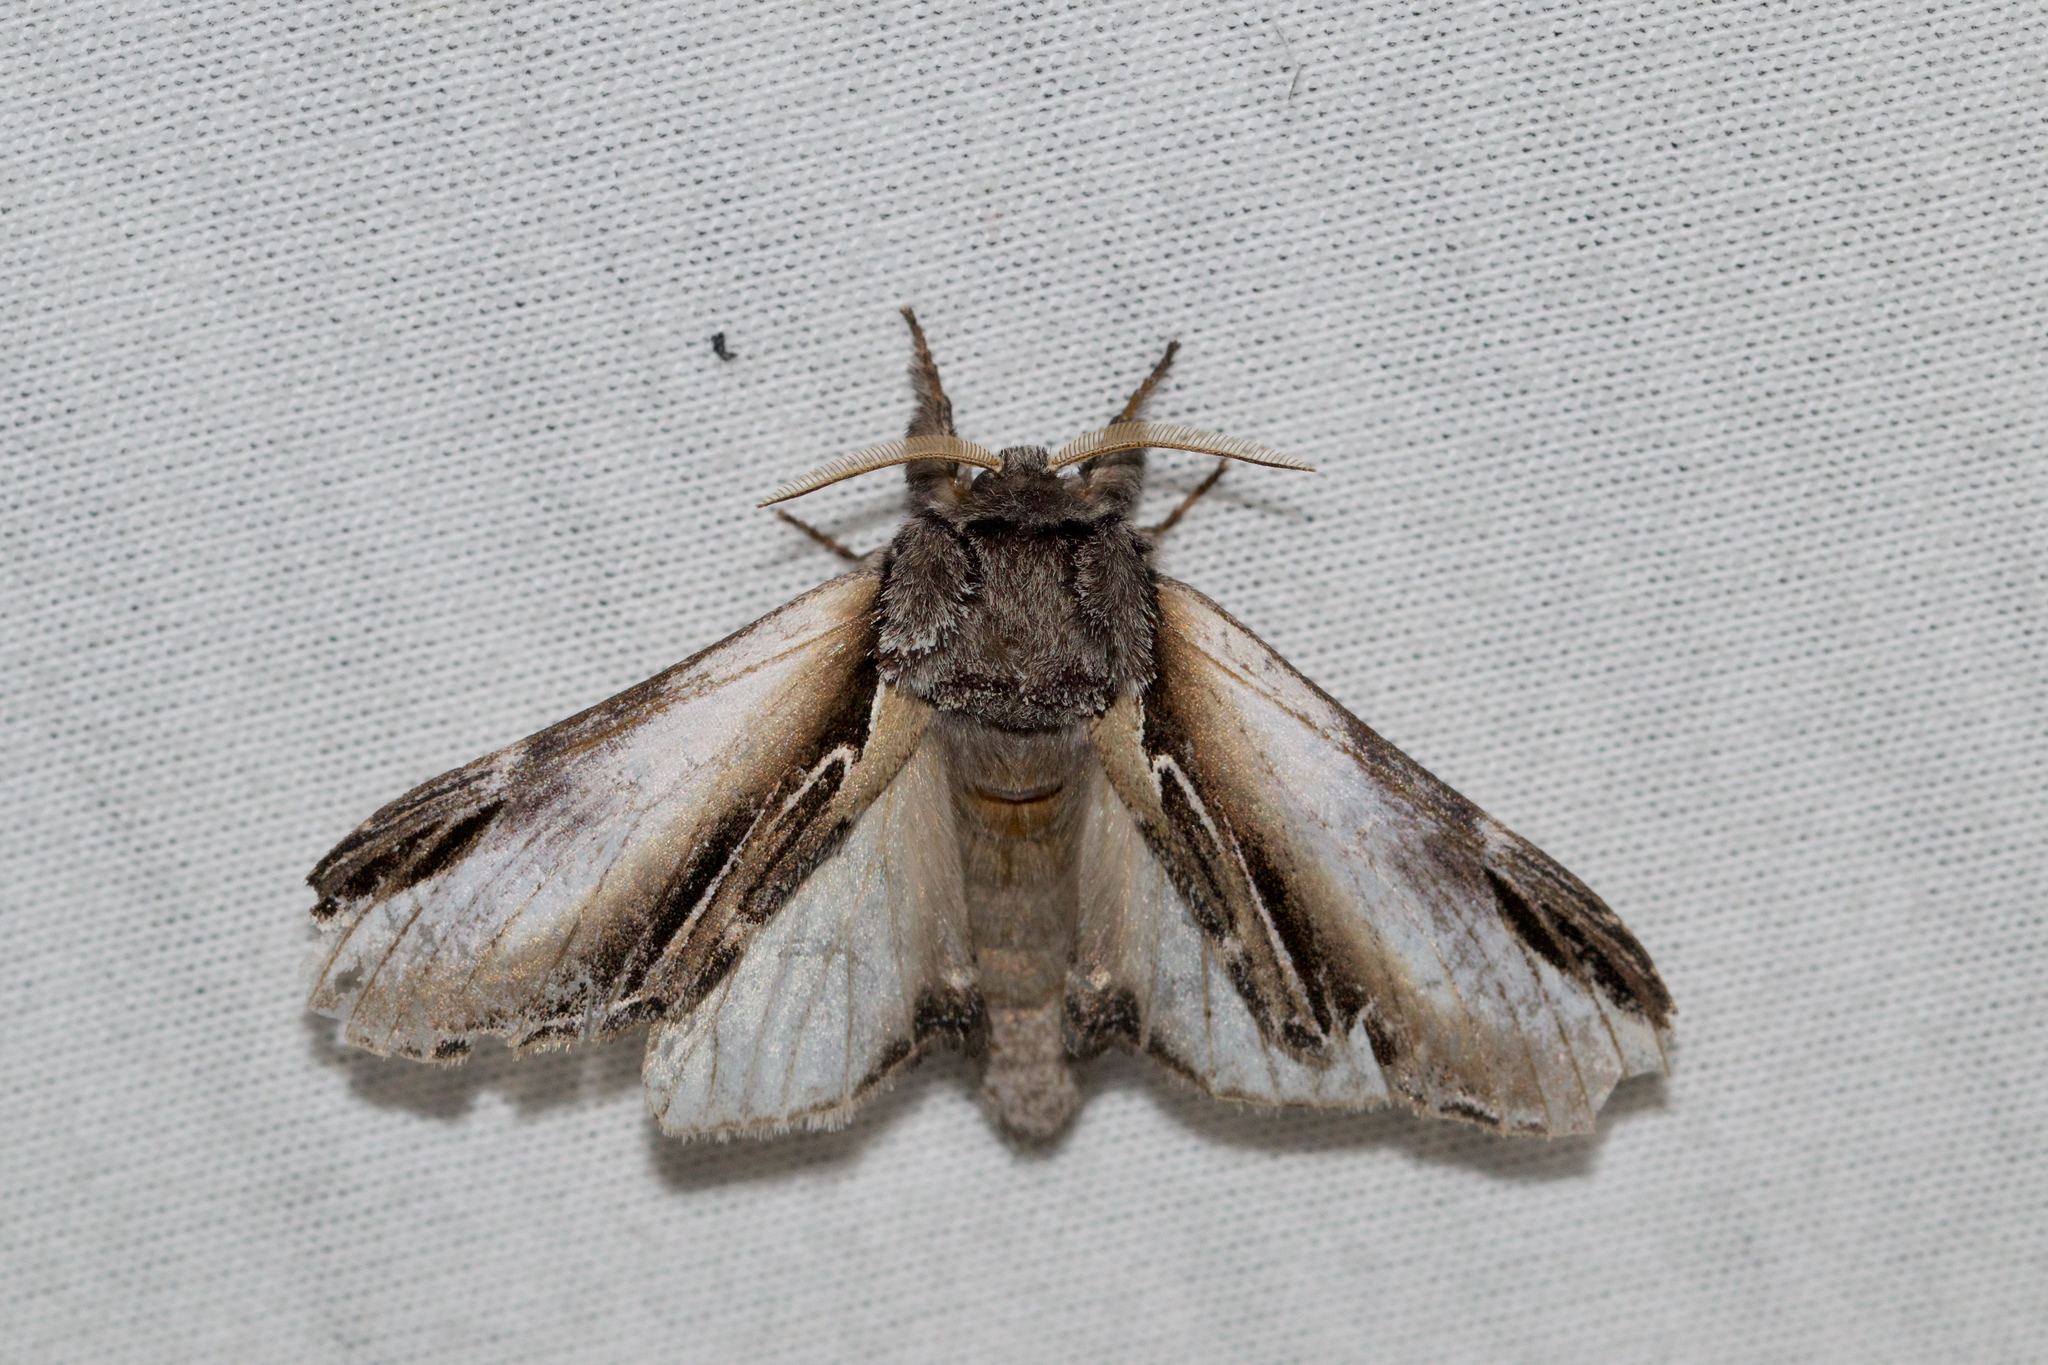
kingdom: Animalia
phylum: Arthropoda
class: Insecta
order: Lepidoptera
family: Notodontidae
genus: Pheosia
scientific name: Pheosia rimosa
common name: Black-rimmed prominent
